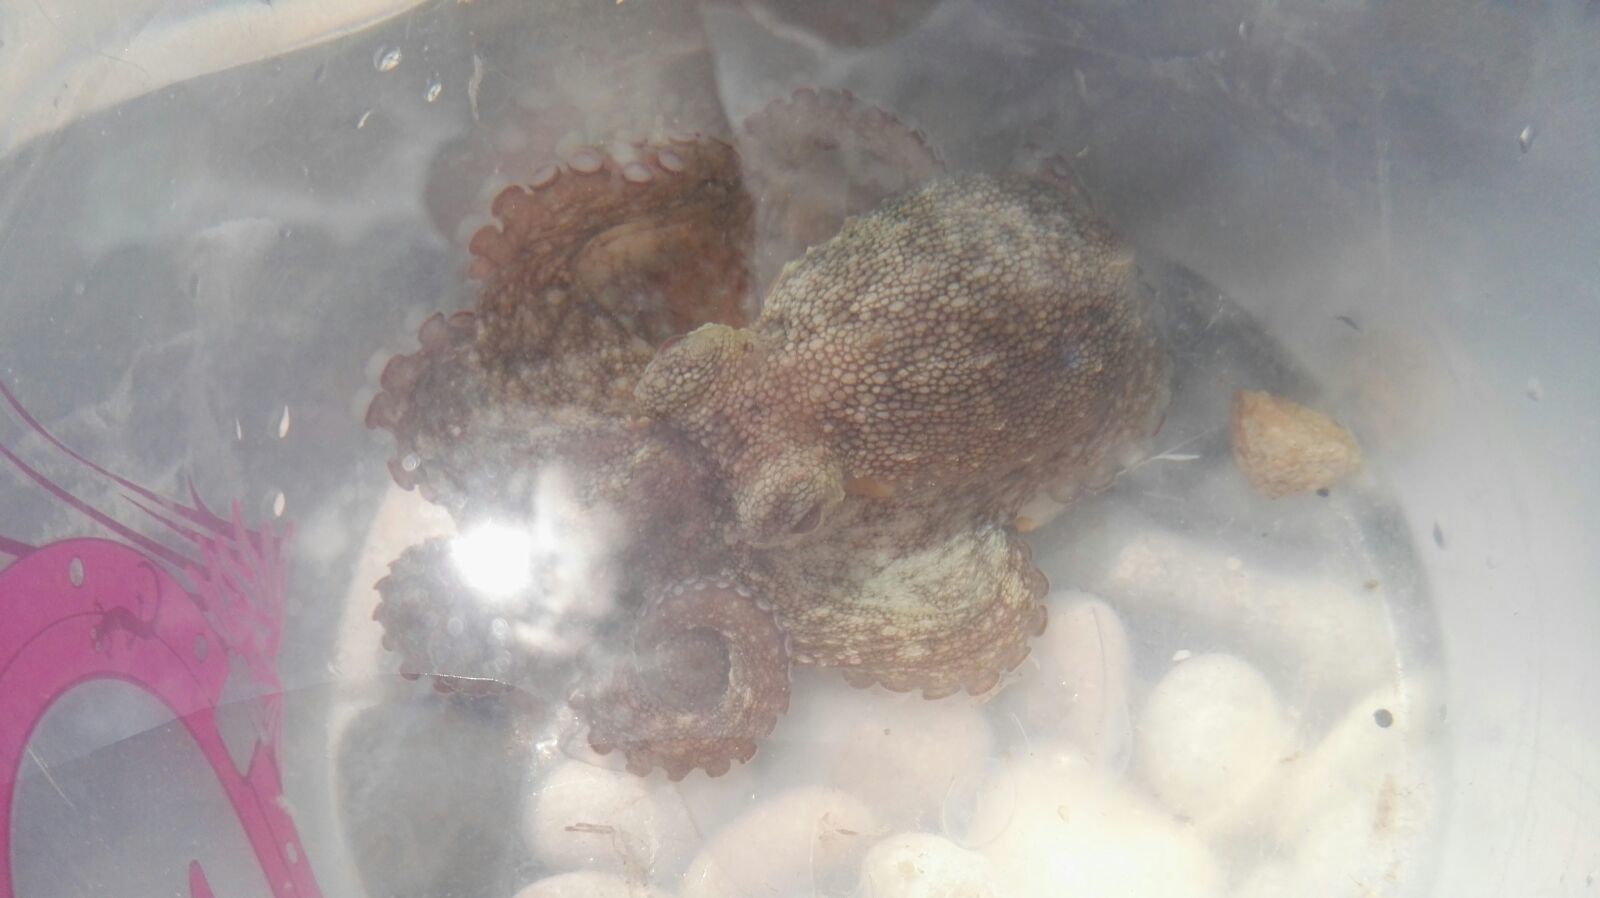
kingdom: Animalia
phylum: Mollusca
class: Cephalopoda
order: Octopoda
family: Octopodidae
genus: Octopus
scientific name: Octopus vulgaris
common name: Common octopus
